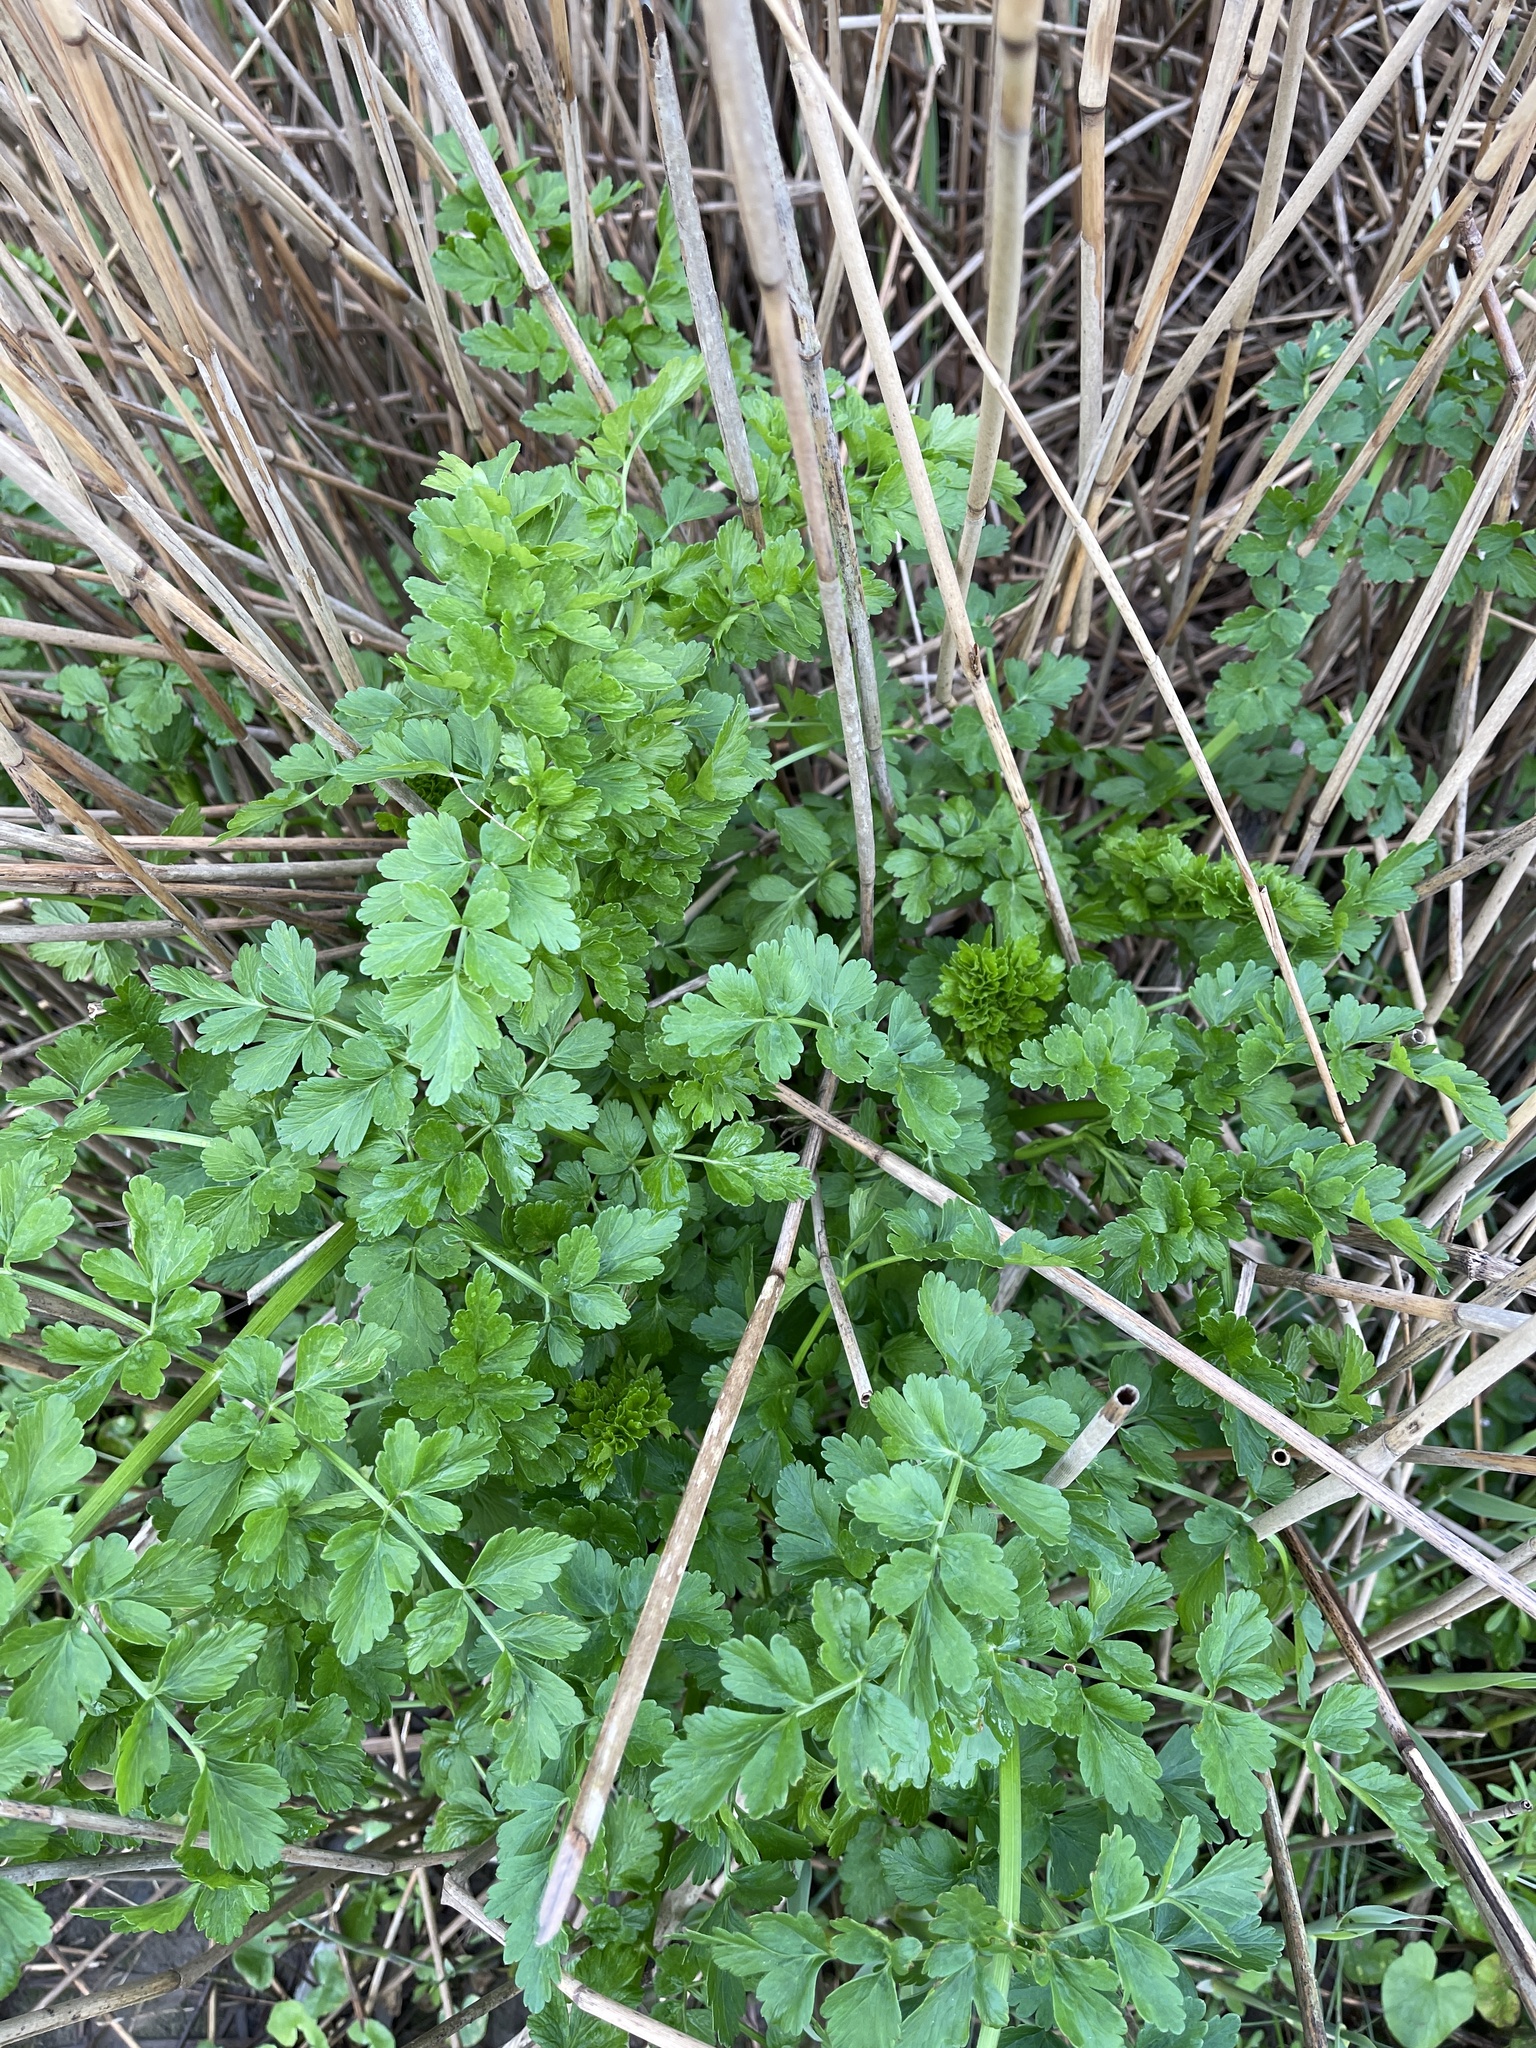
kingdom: Plantae
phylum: Tracheophyta
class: Magnoliopsida
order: Apiales
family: Apiaceae
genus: Oenanthe
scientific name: Oenanthe crocata
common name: Hemlock water-dropwort
